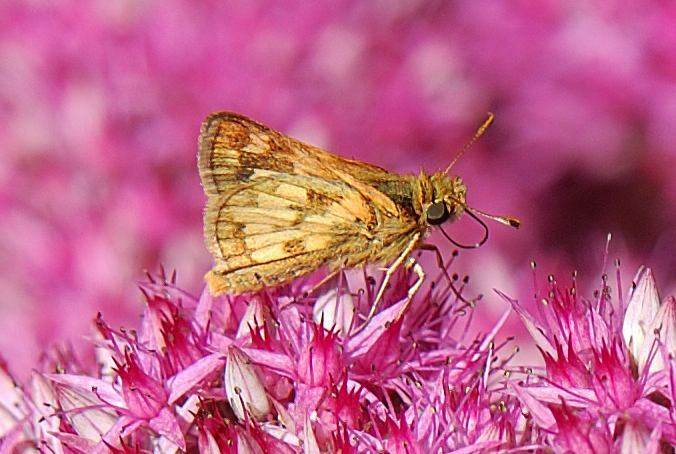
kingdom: Animalia
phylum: Arthropoda
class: Insecta
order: Lepidoptera
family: Hesperiidae
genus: Polites
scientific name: Polites coras
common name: Peck's skipper
